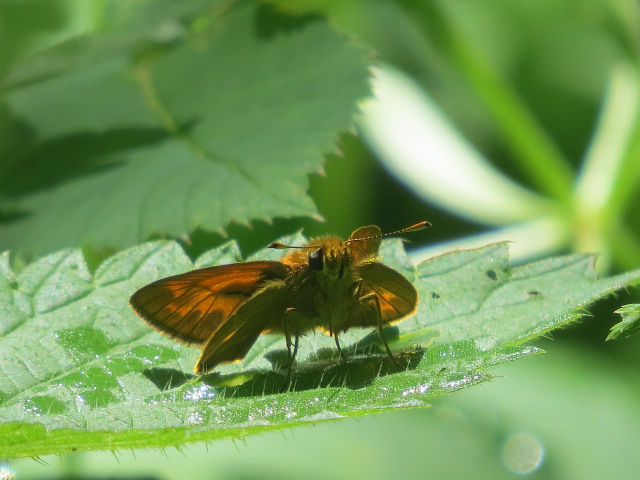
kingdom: Animalia
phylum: Arthropoda
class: Insecta
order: Lepidoptera
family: Hesperiidae
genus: Ochlodes
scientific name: Ochlodes venata
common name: Large skipper
